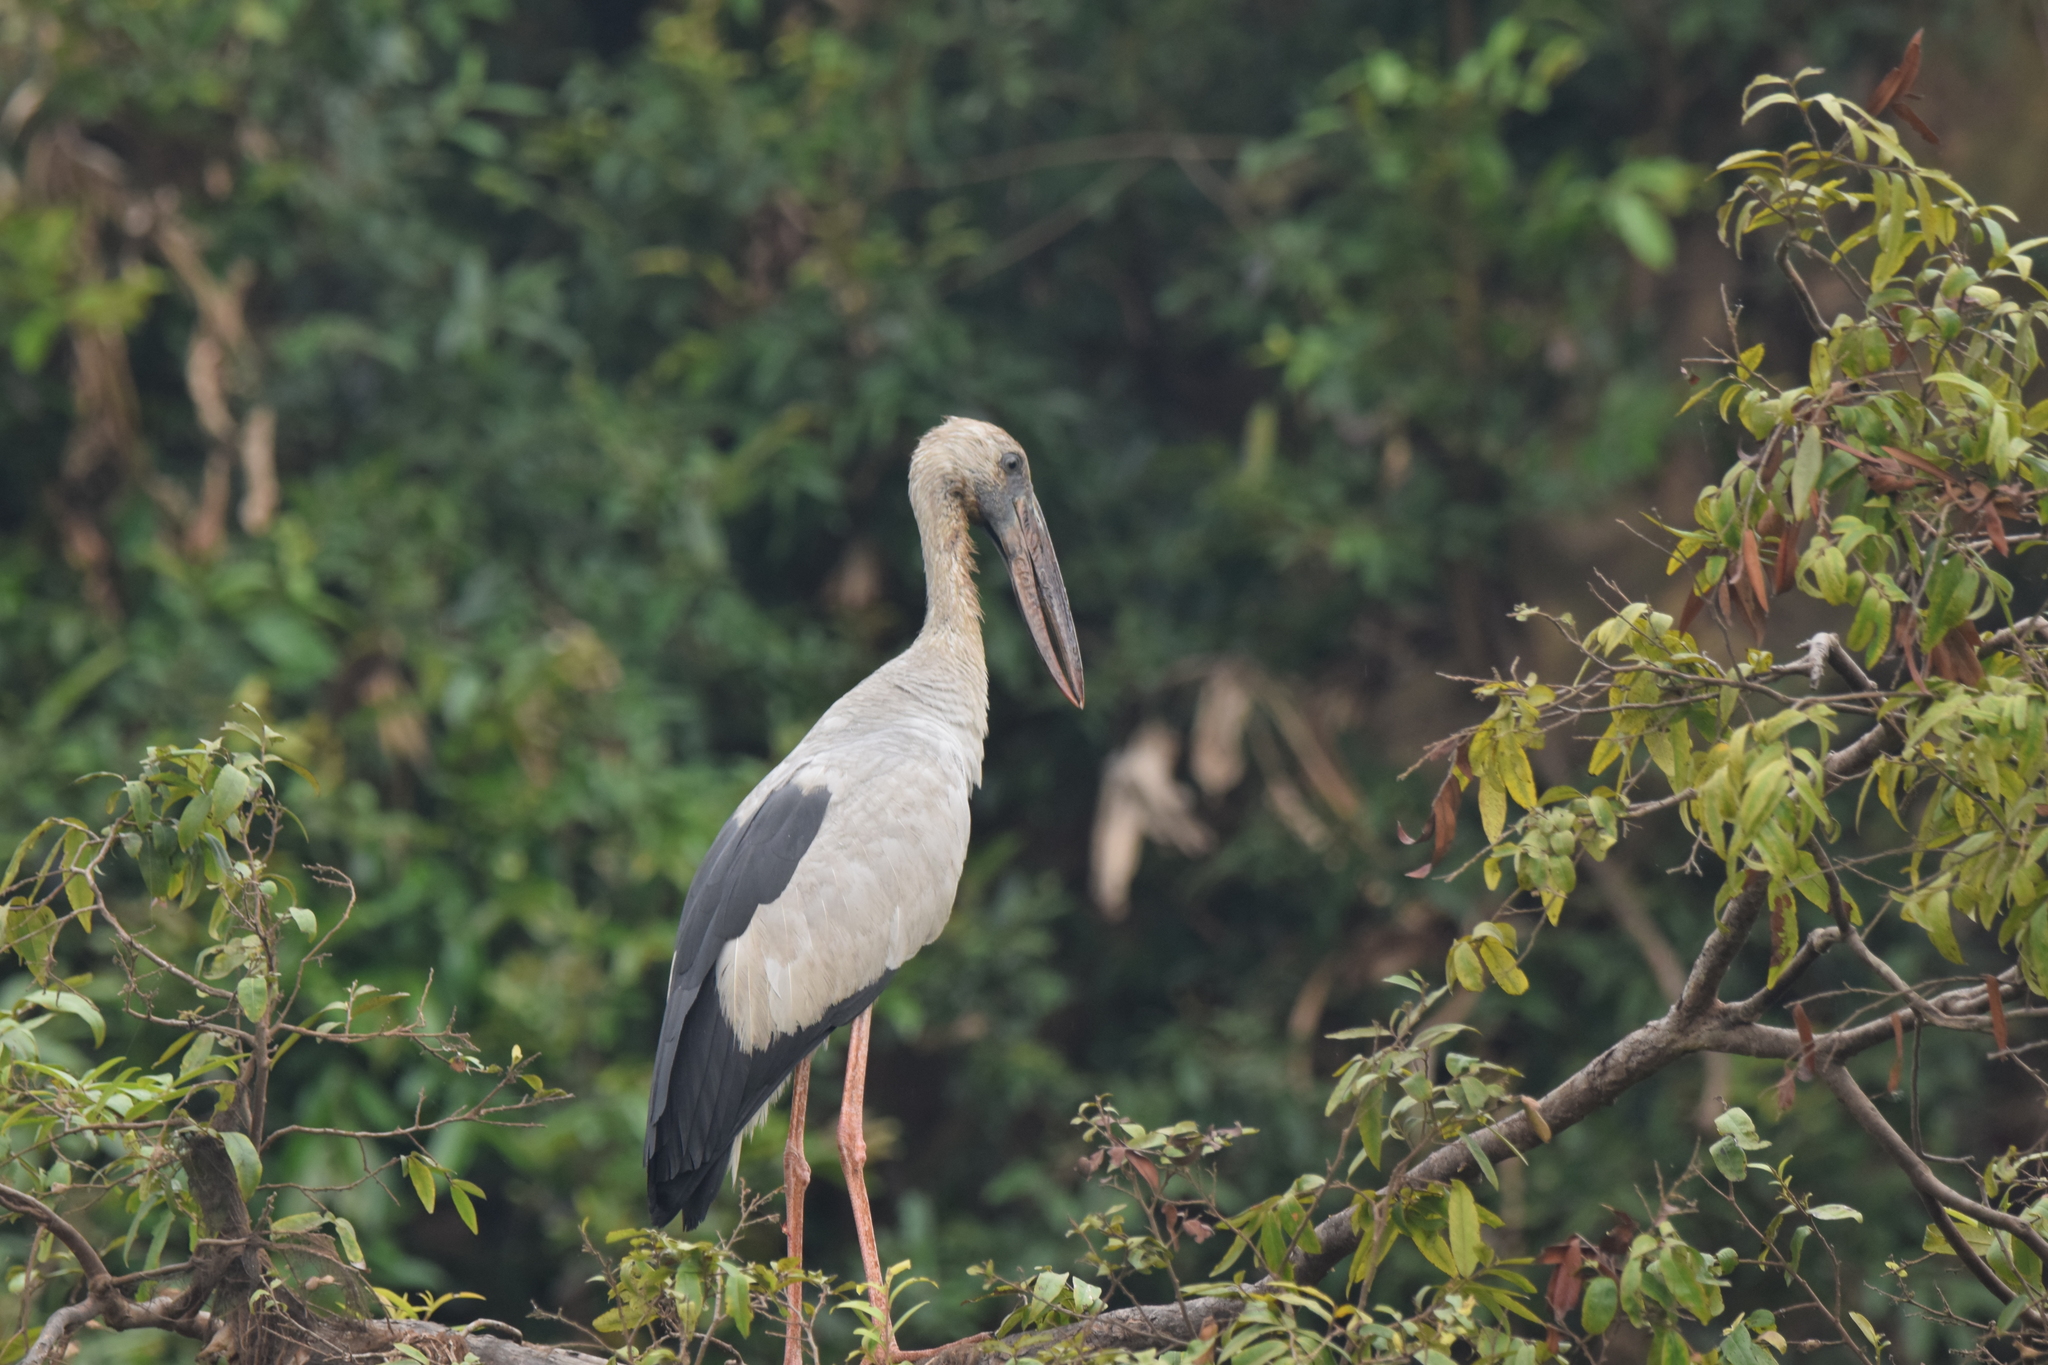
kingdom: Animalia
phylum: Chordata
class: Aves
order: Ciconiiformes
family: Ciconiidae
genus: Anastomus
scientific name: Anastomus oscitans
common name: Asian openbill
